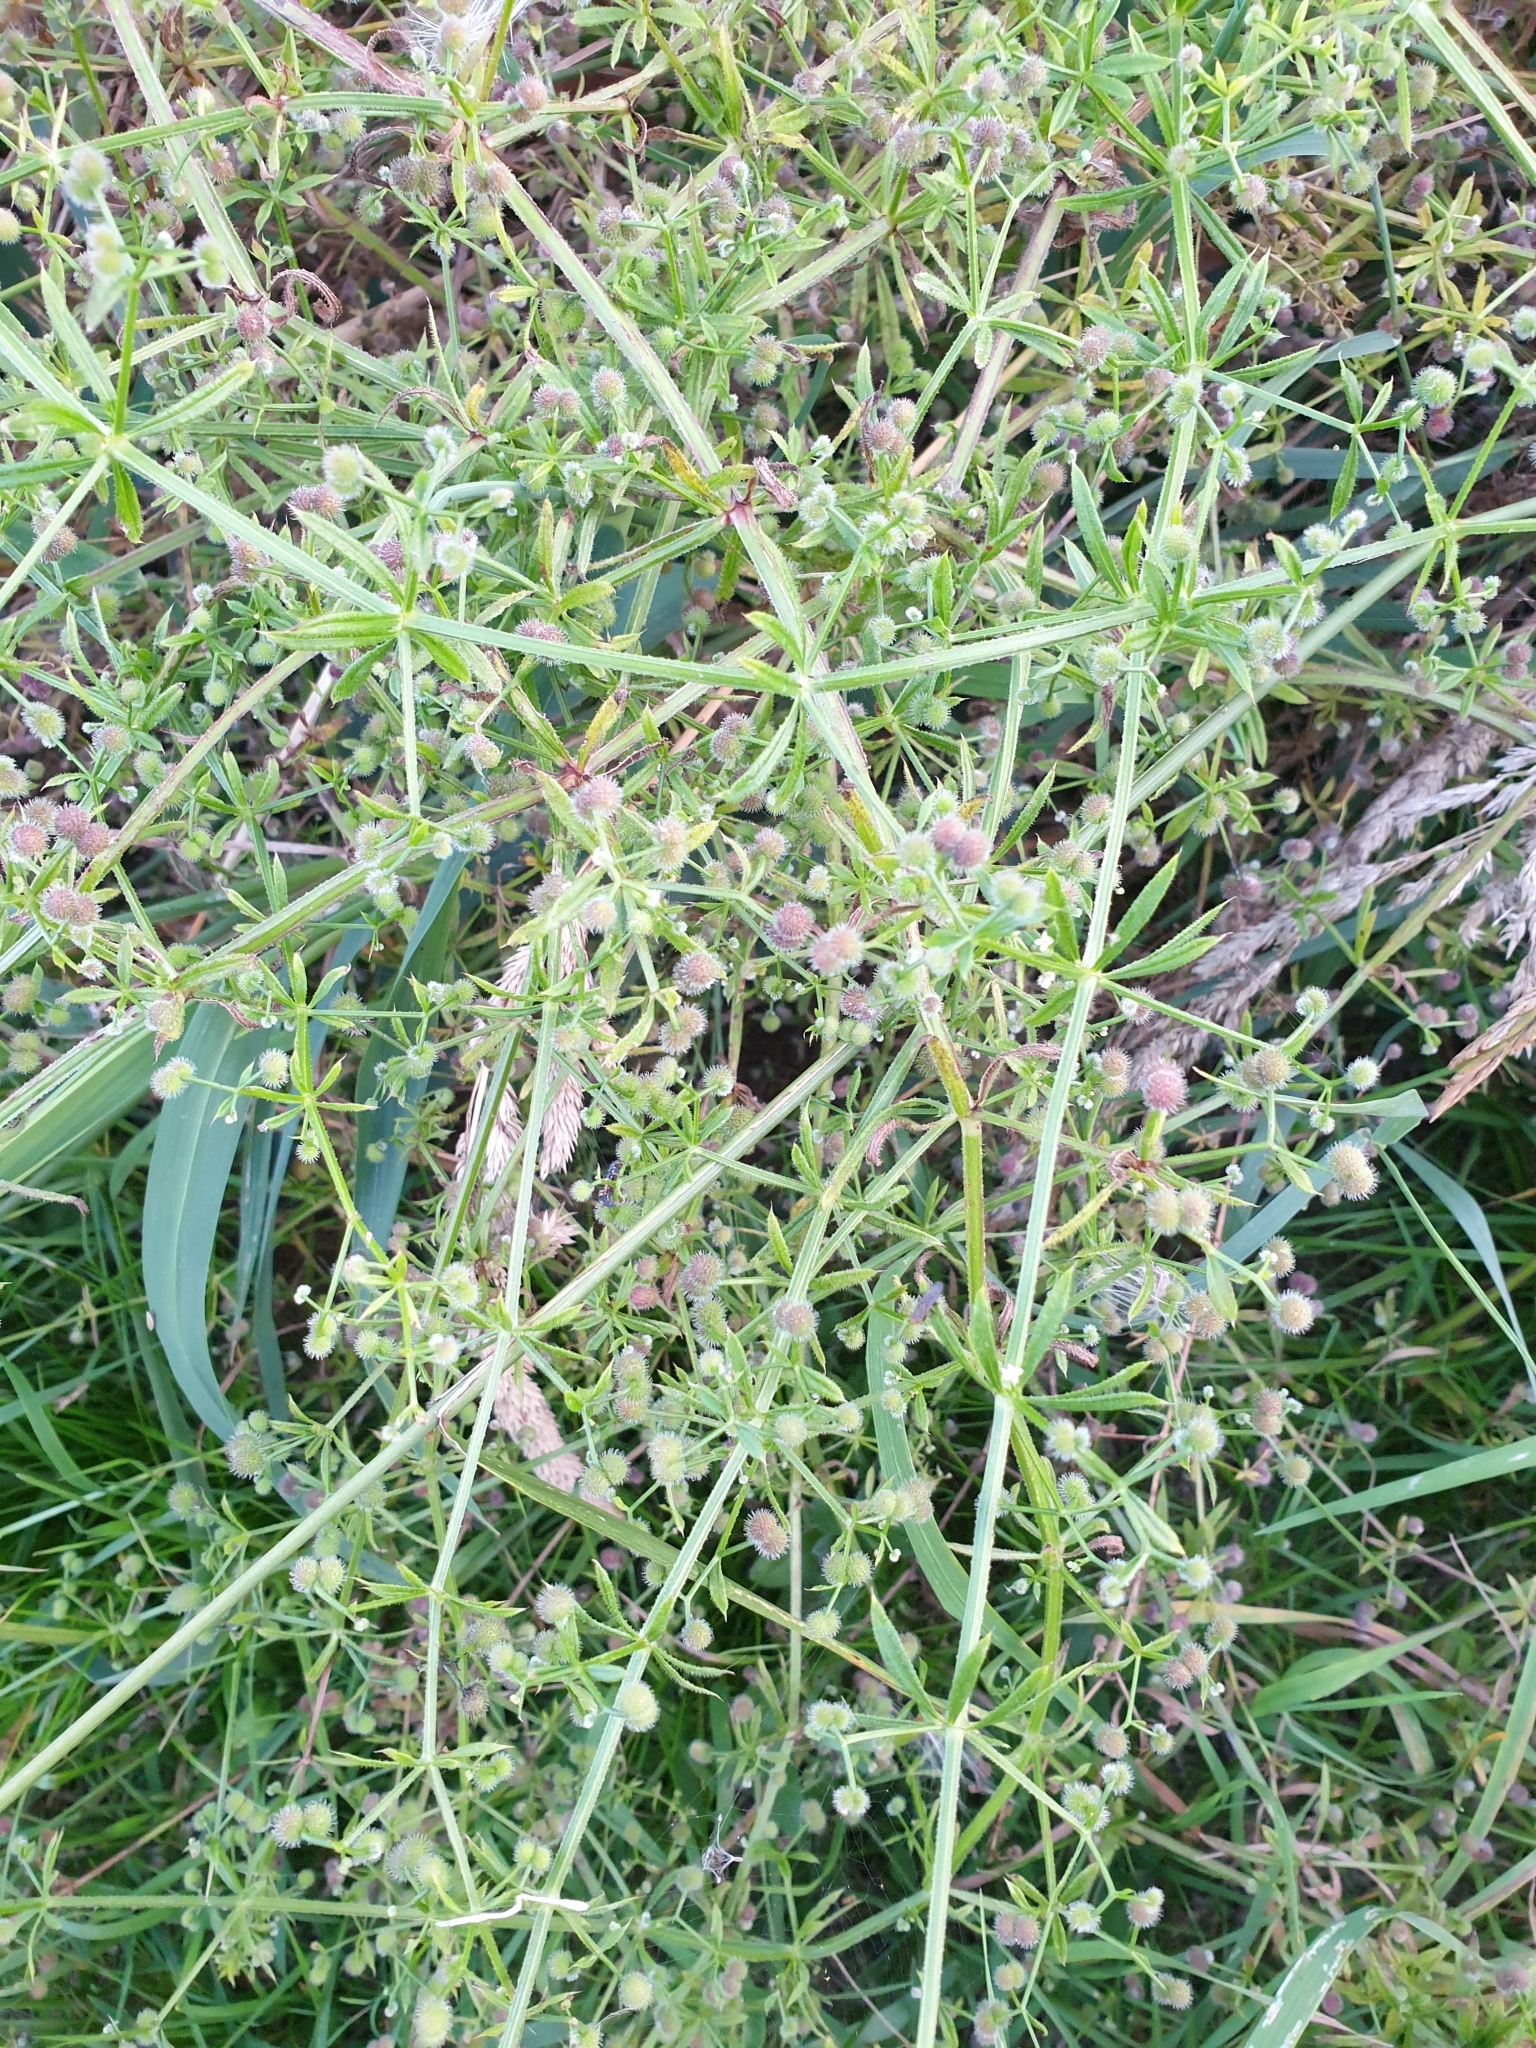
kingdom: Plantae
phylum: Tracheophyta
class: Magnoliopsida
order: Gentianales
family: Rubiaceae
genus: Galium
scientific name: Galium aparine
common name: Cleavers
